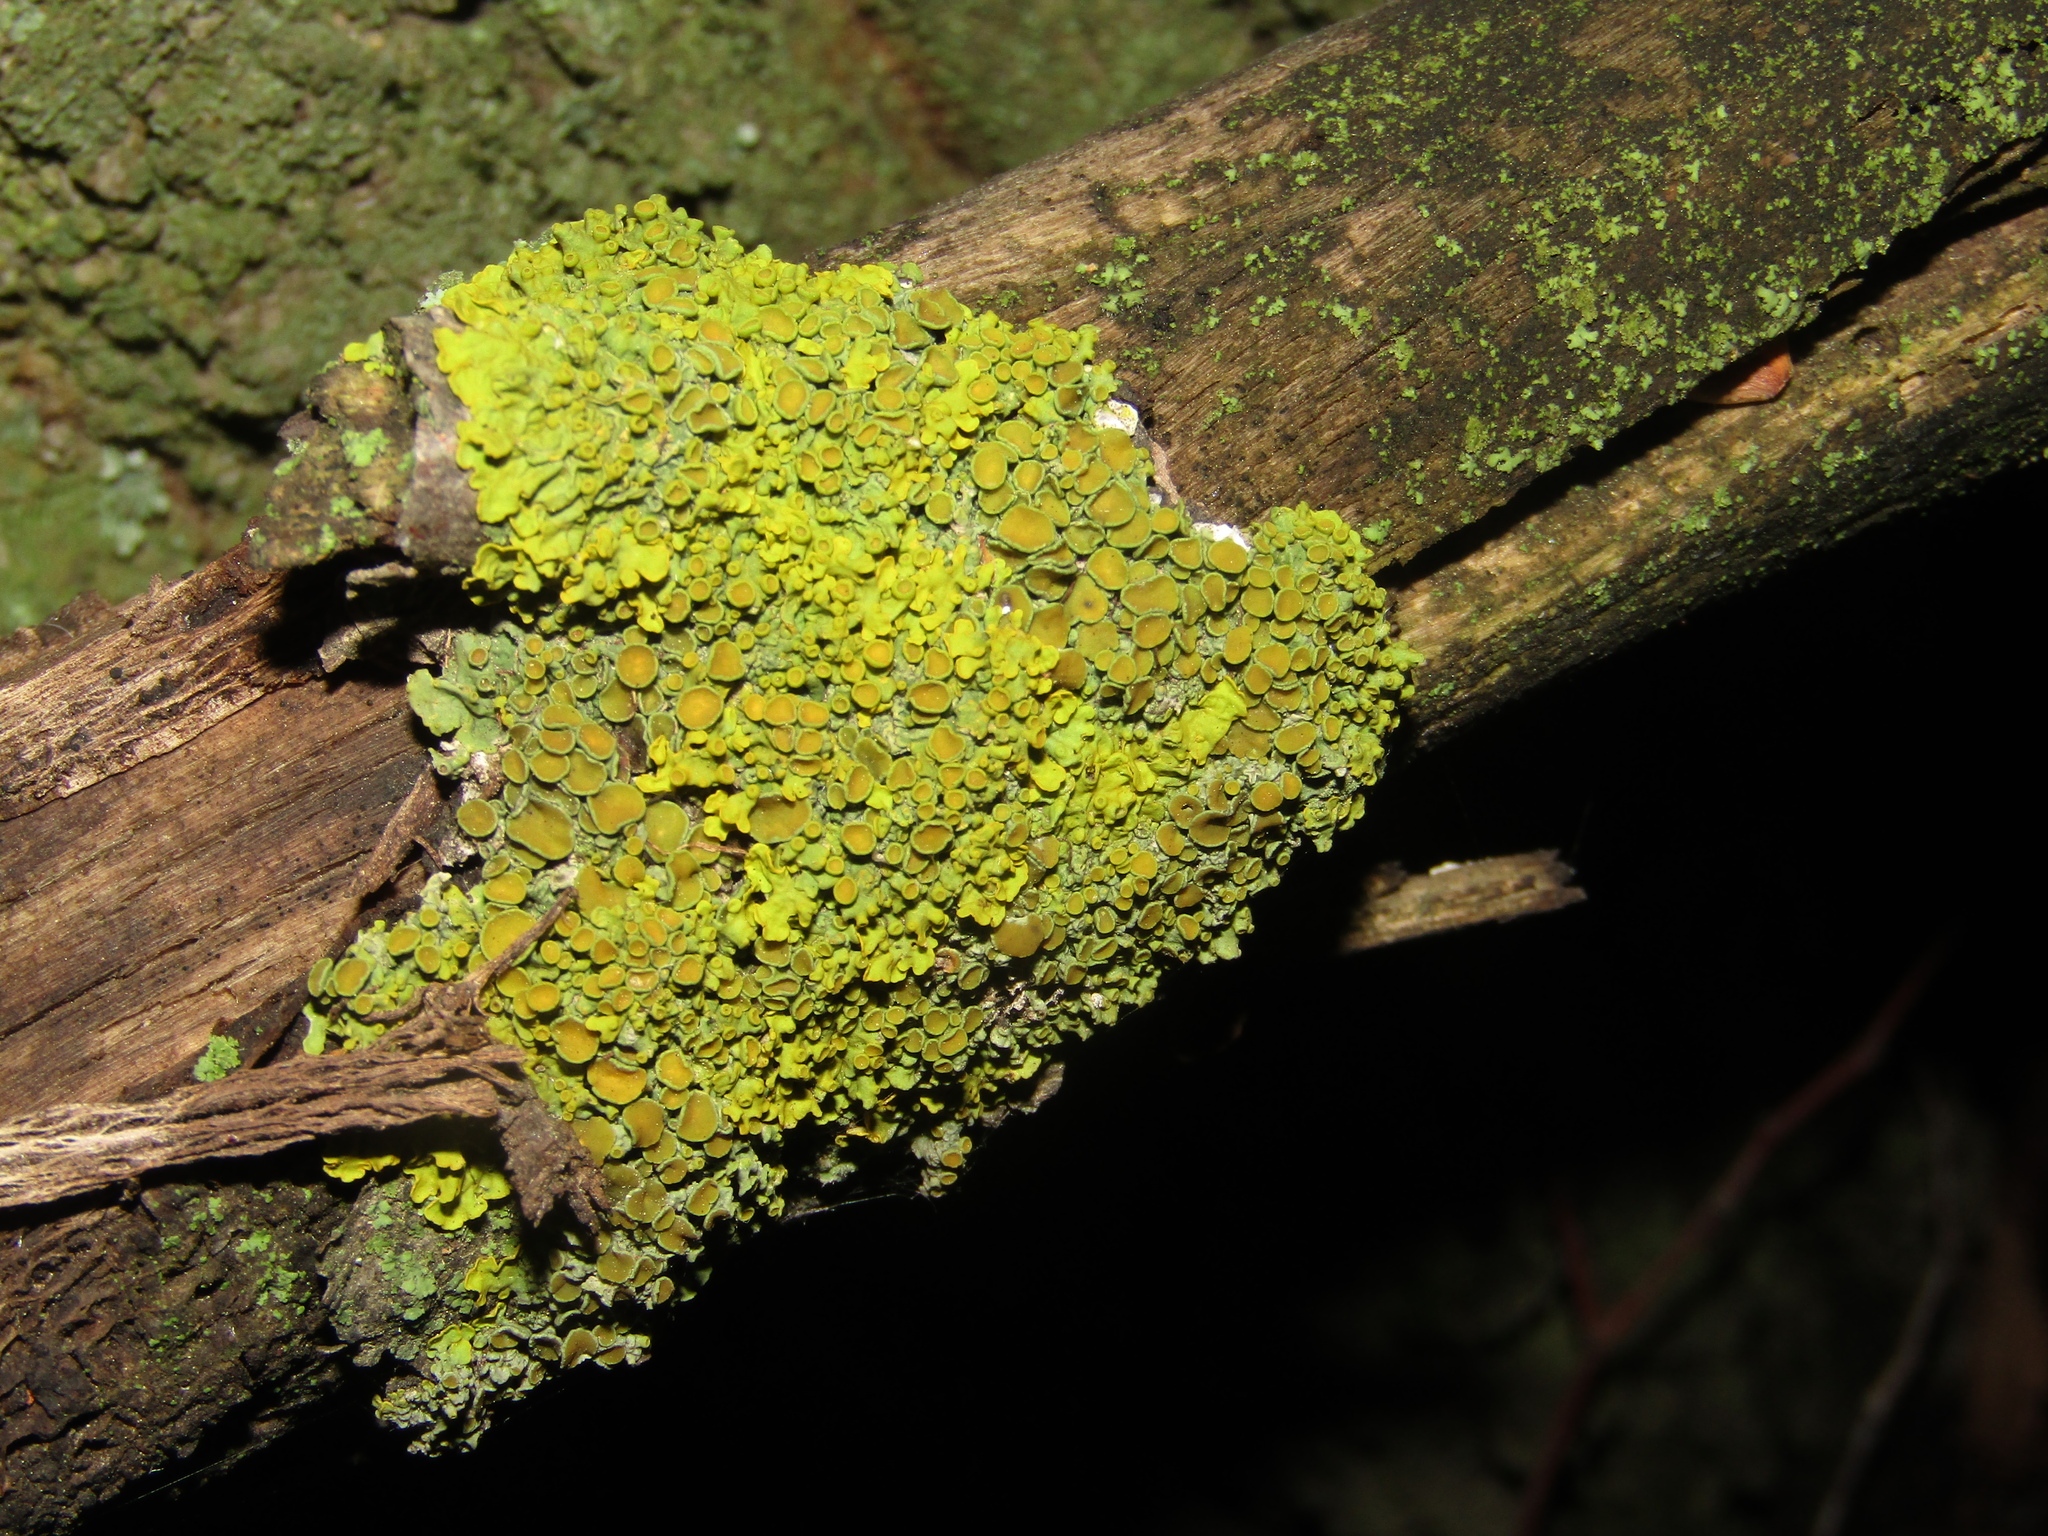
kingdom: Fungi
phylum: Ascomycota
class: Lecanoromycetes
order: Teloschistales
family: Teloschistaceae
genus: Xanthoria
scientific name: Xanthoria parietina
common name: Common orange lichen
